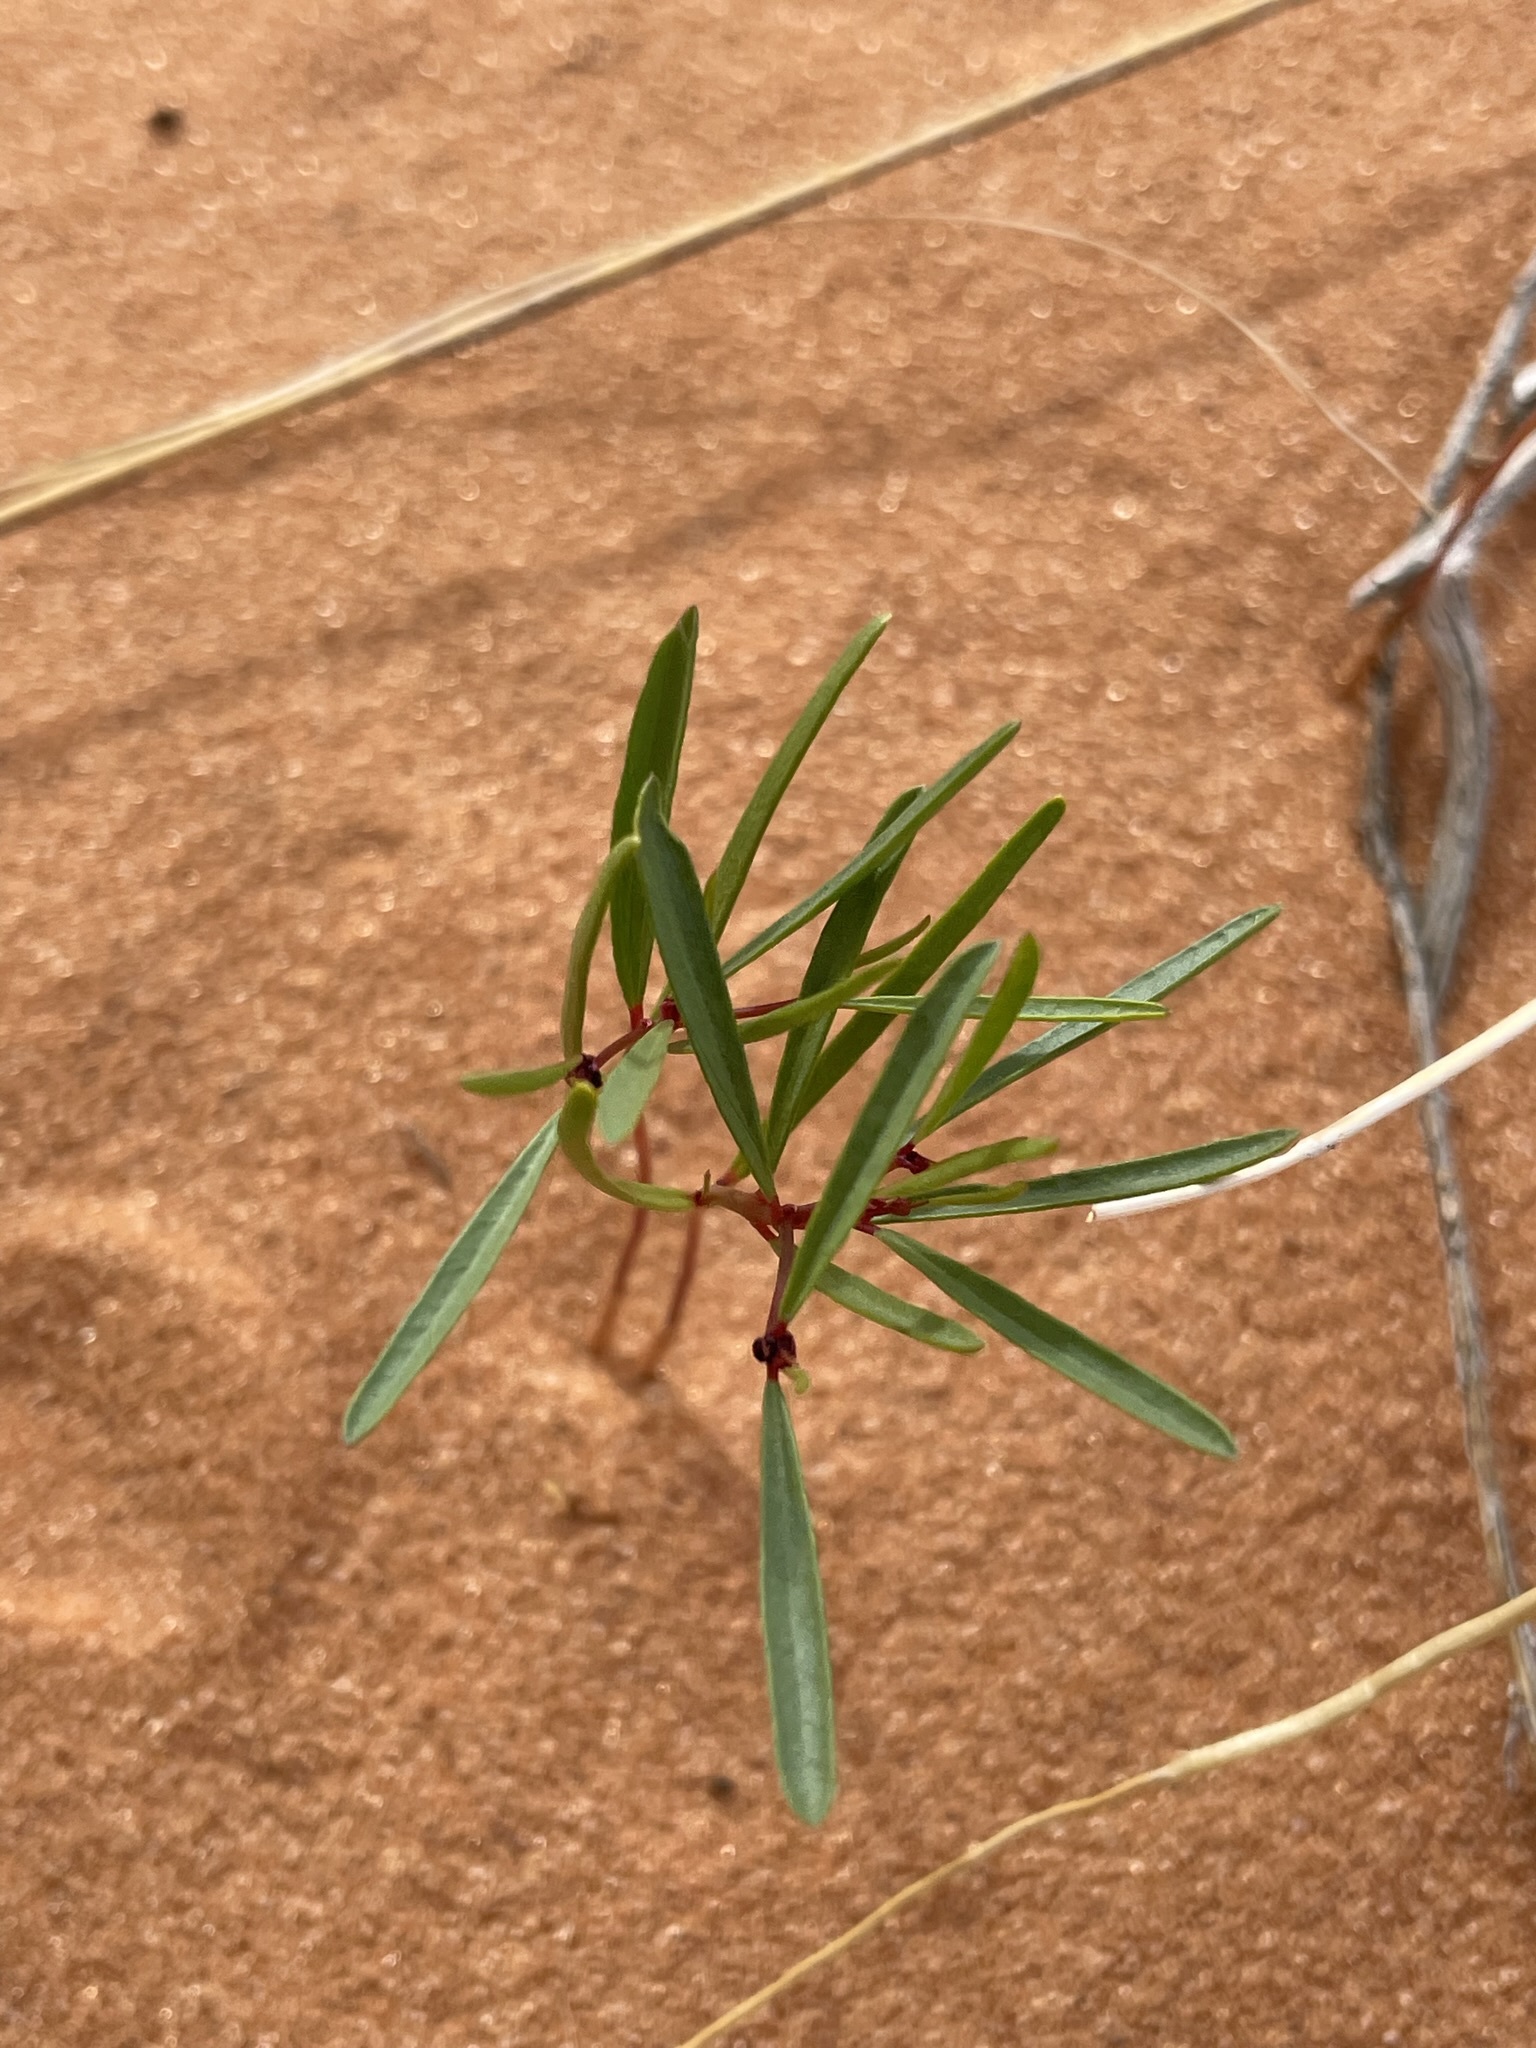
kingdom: Plantae
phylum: Tracheophyta
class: Magnoliopsida
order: Malpighiales
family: Phyllanthaceae
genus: Phyllanthus
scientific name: Phyllanthus warnockii
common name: Sand reverchonia
